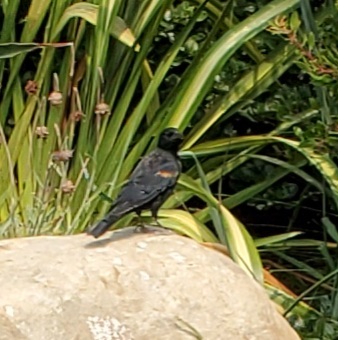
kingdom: Animalia
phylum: Chordata
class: Aves
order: Passeriformes
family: Icteridae
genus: Agelaius
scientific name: Agelaius phoeniceus
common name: Red-winged blackbird
